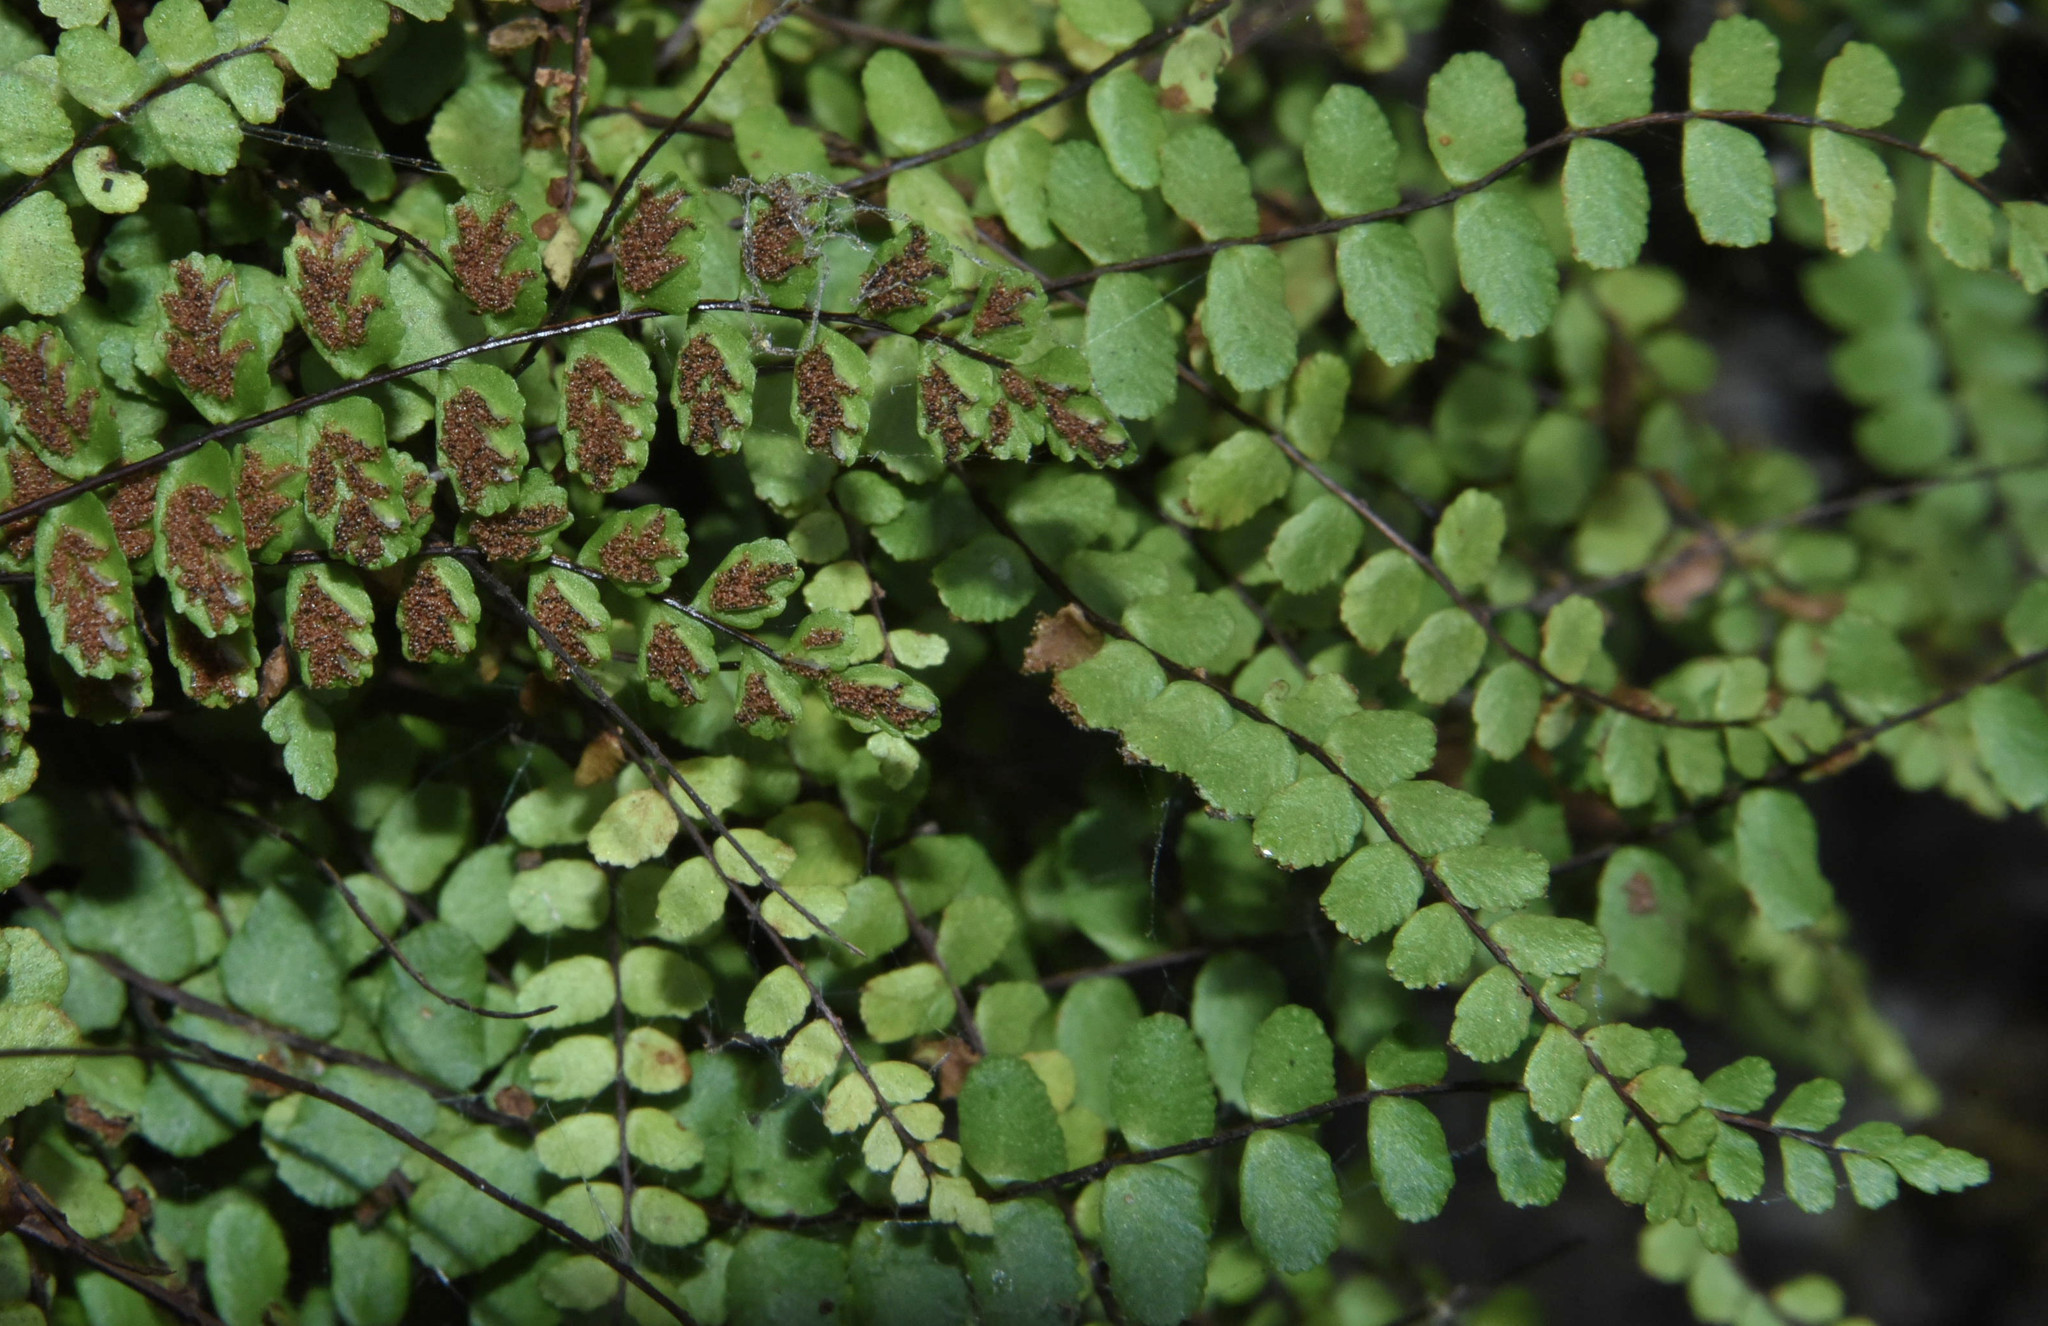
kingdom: Plantae
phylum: Tracheophyta
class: Polypodiopsida
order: Polypodiales
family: Aspleniaceae
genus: Asplenium
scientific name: Asplenium trichomanes
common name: Maidenhair spleenwort
